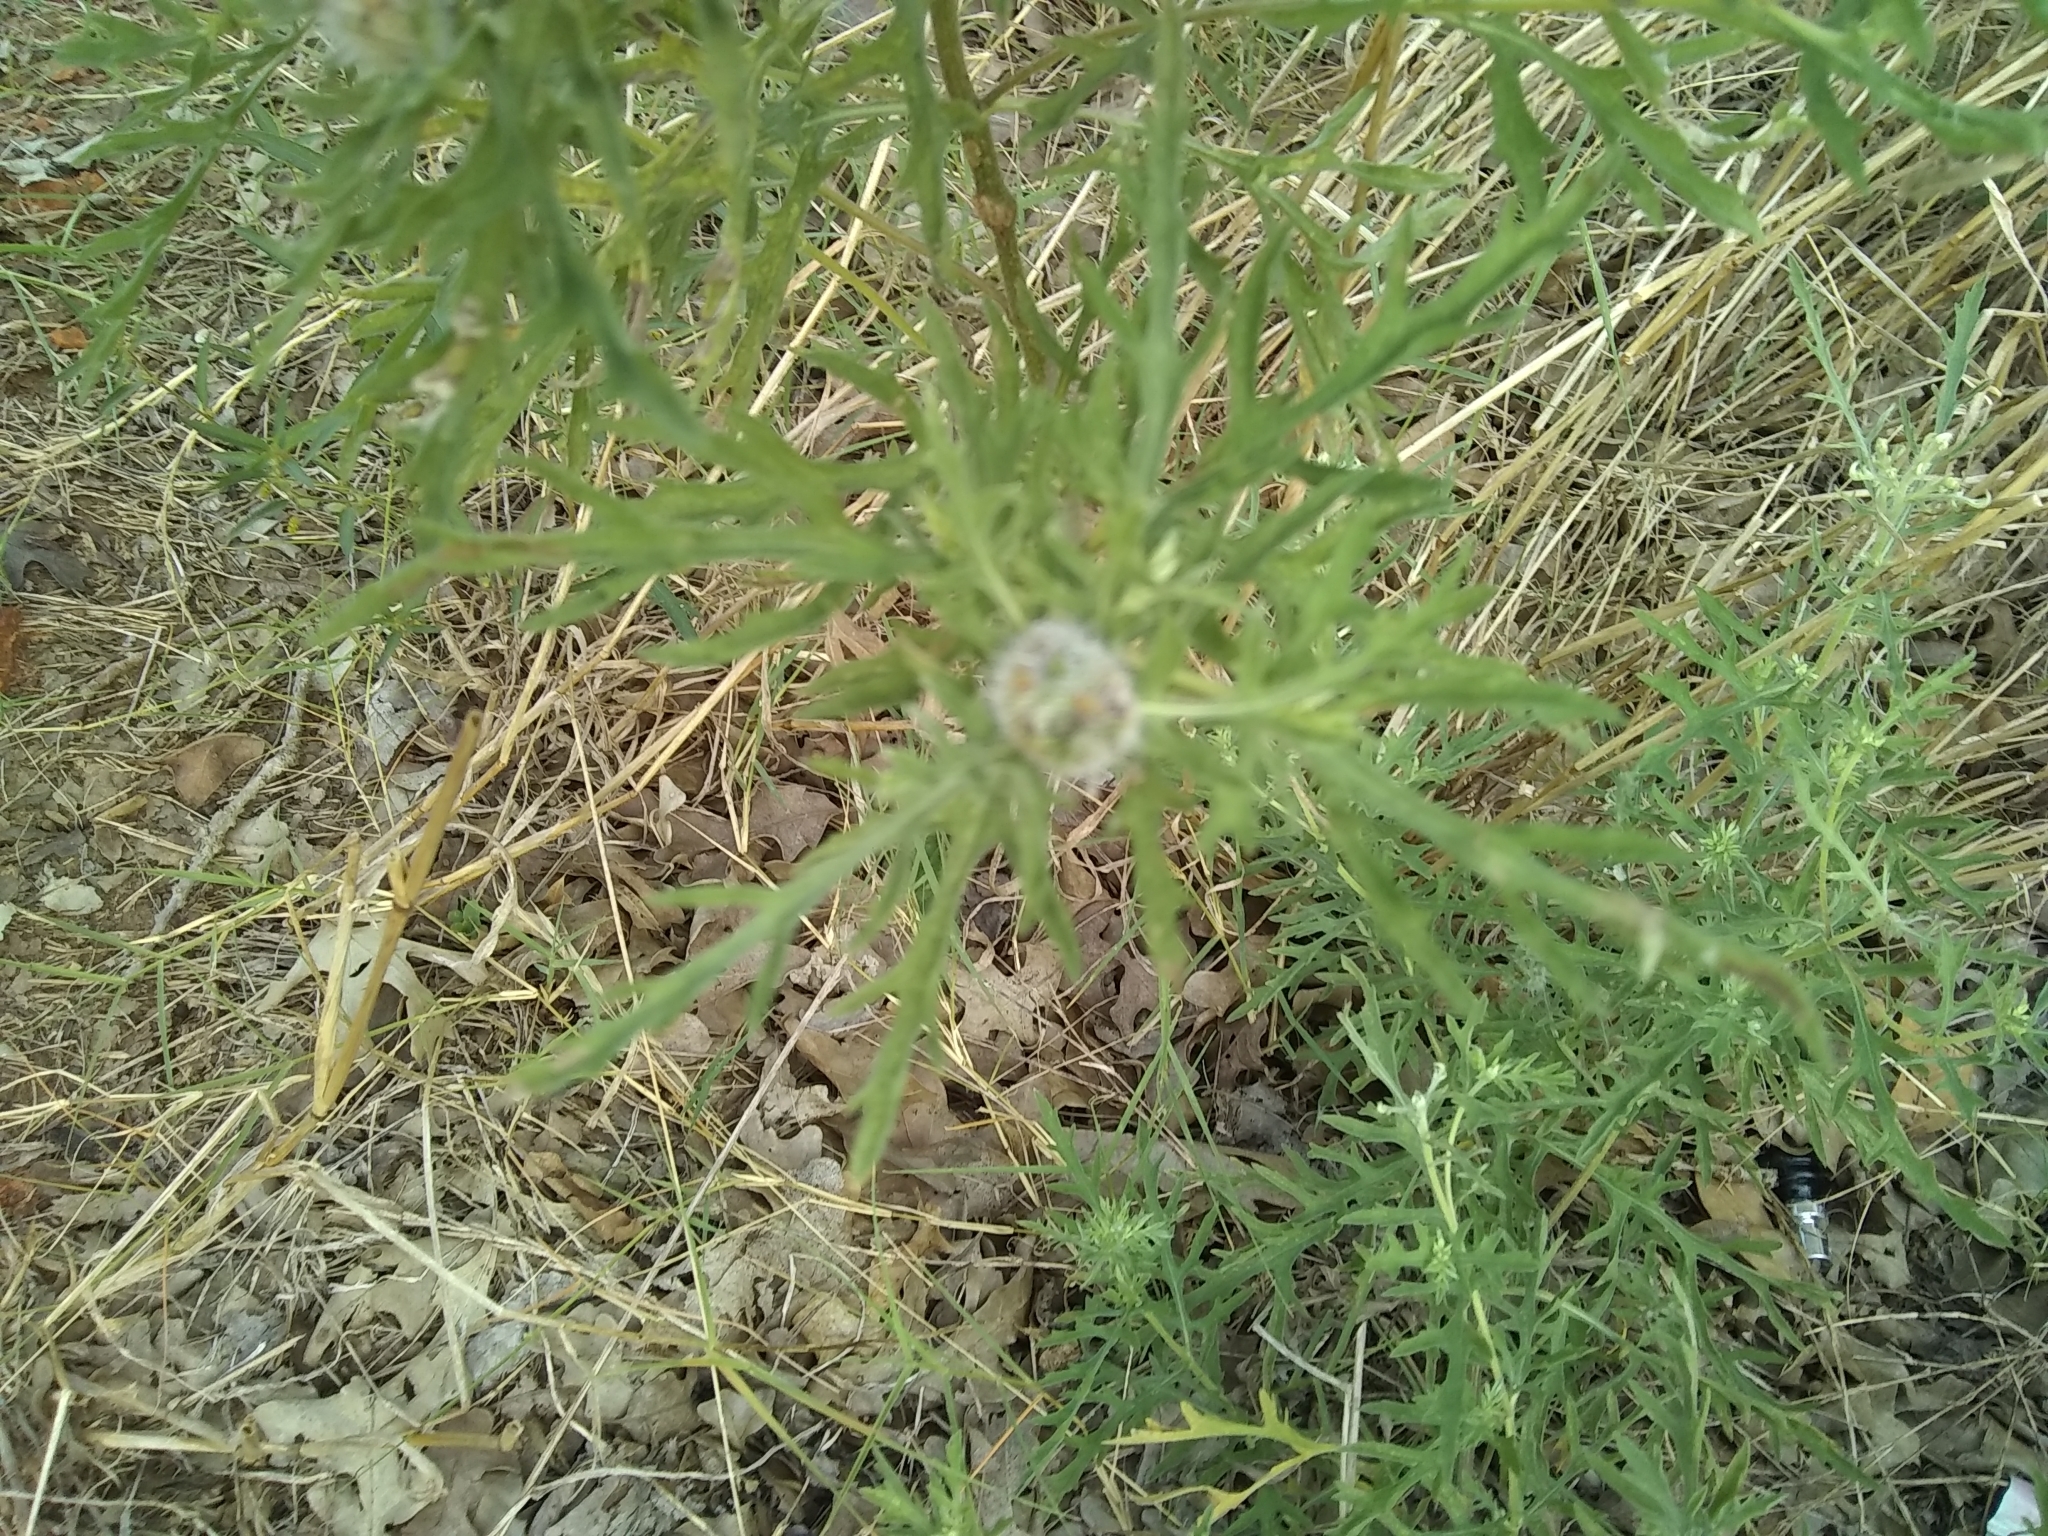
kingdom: Plantae
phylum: Tracheophyta
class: Magnoliopsida
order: Asterales
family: Asteraceae
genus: Ambrosia
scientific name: Ambrosia psilostachya
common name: Perennial ragweed
